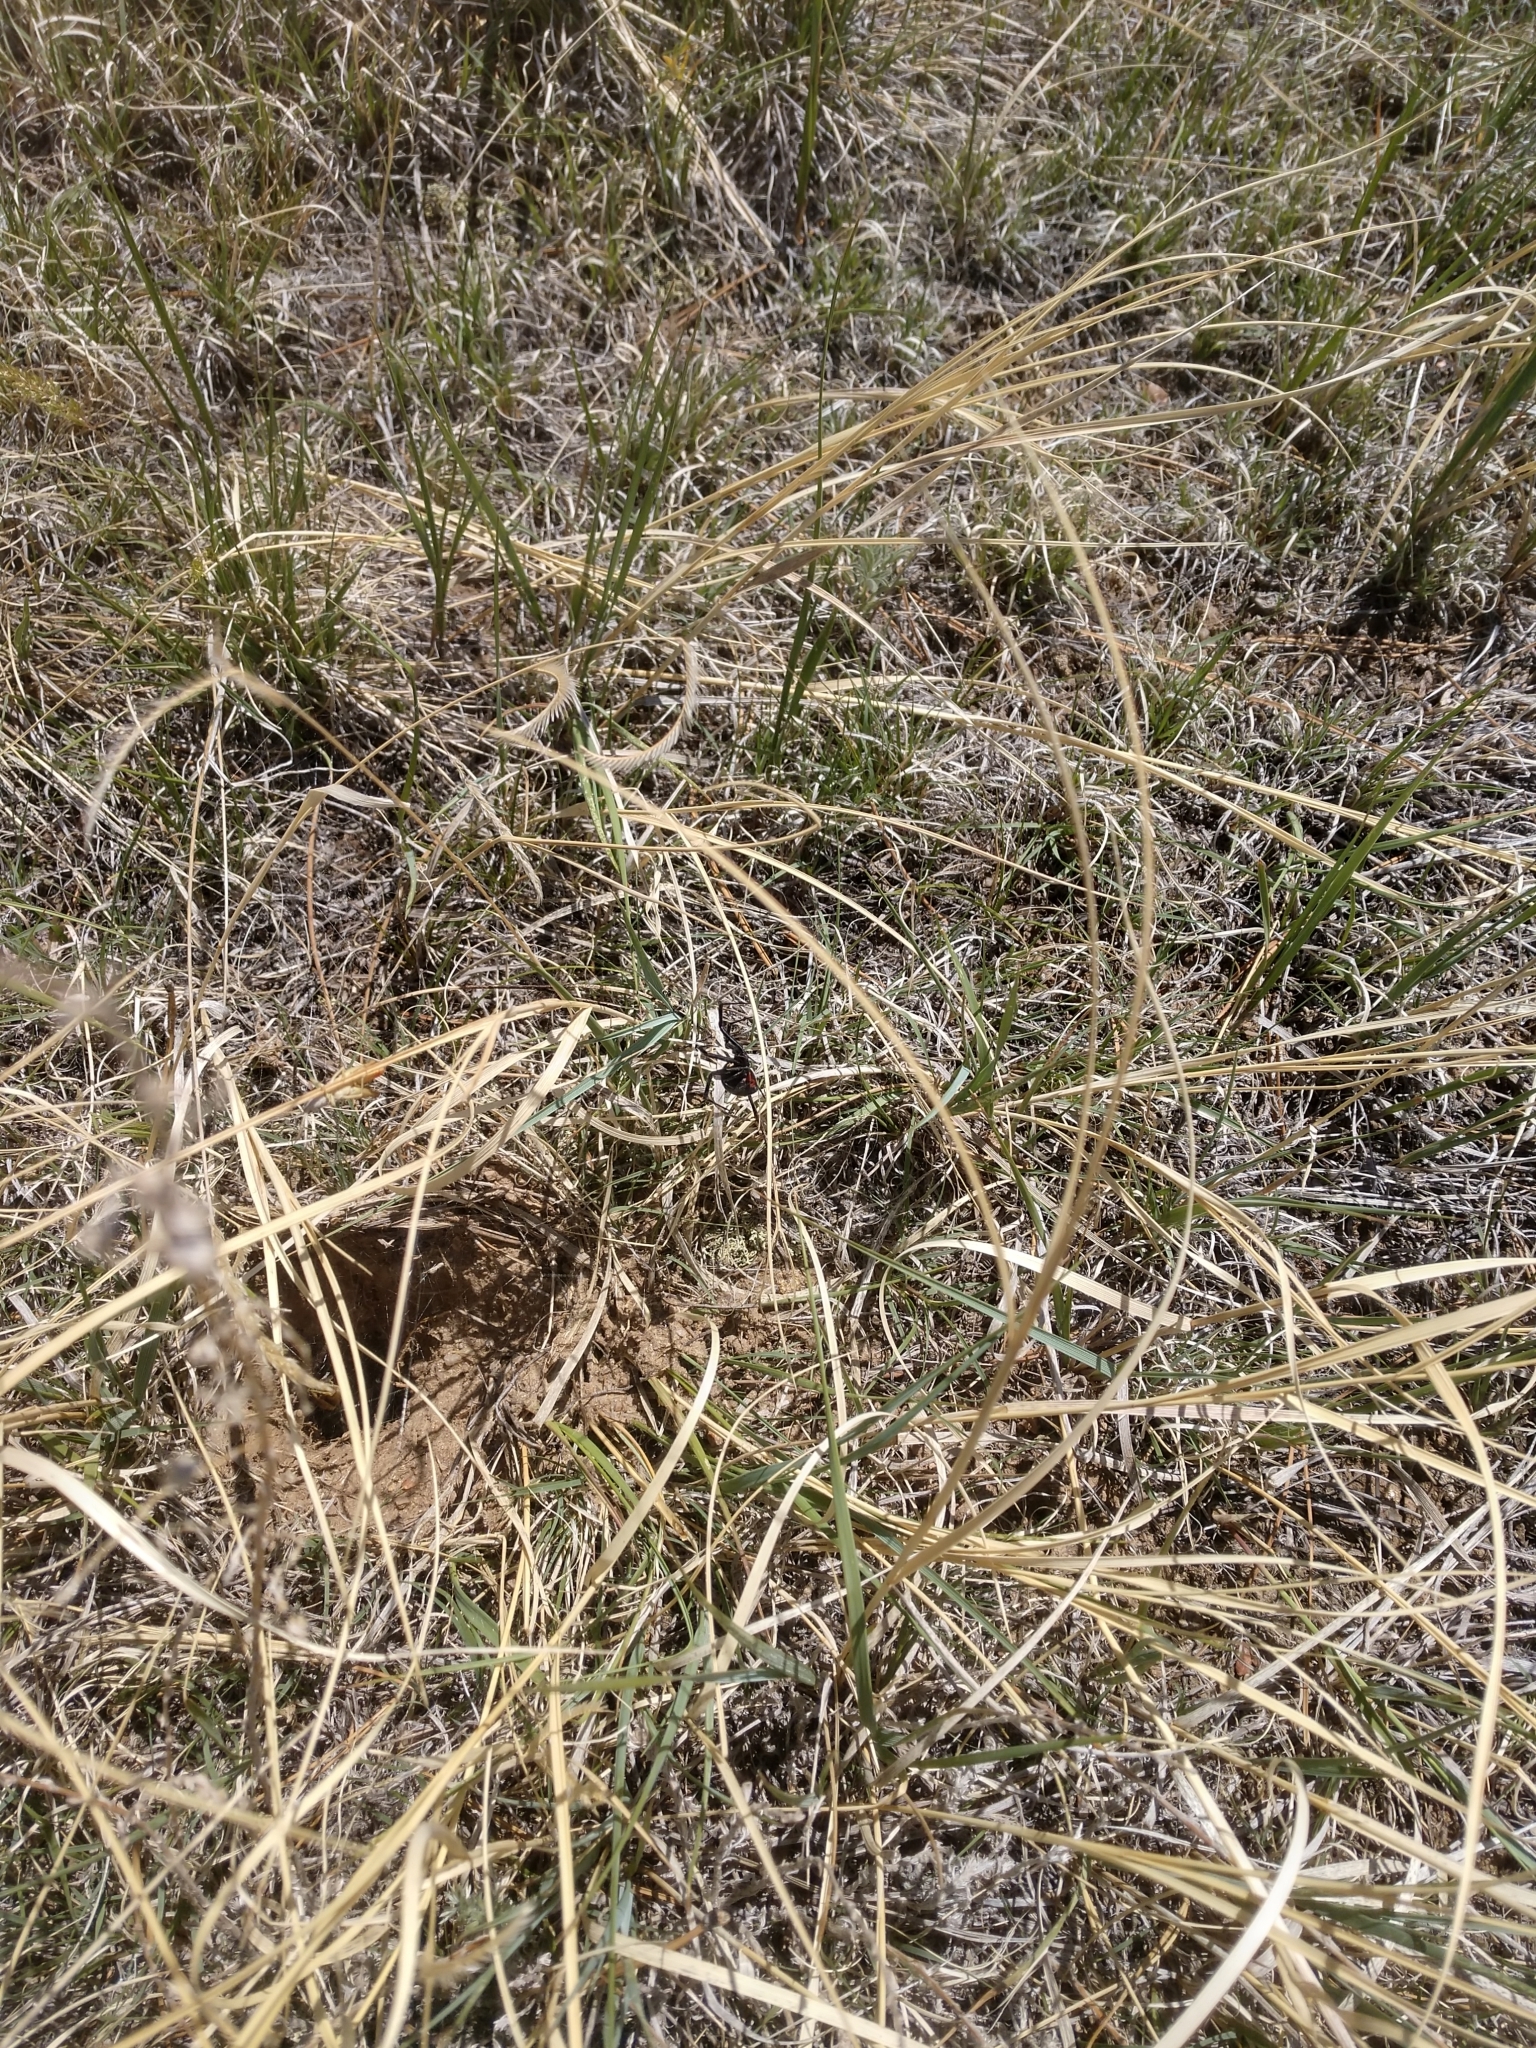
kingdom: Animalia
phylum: Arthropoda
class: Arachnida
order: Araneae
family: Theridiidae
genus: Latrodectus
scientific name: Latrodectus hesperus
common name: Western black widow
